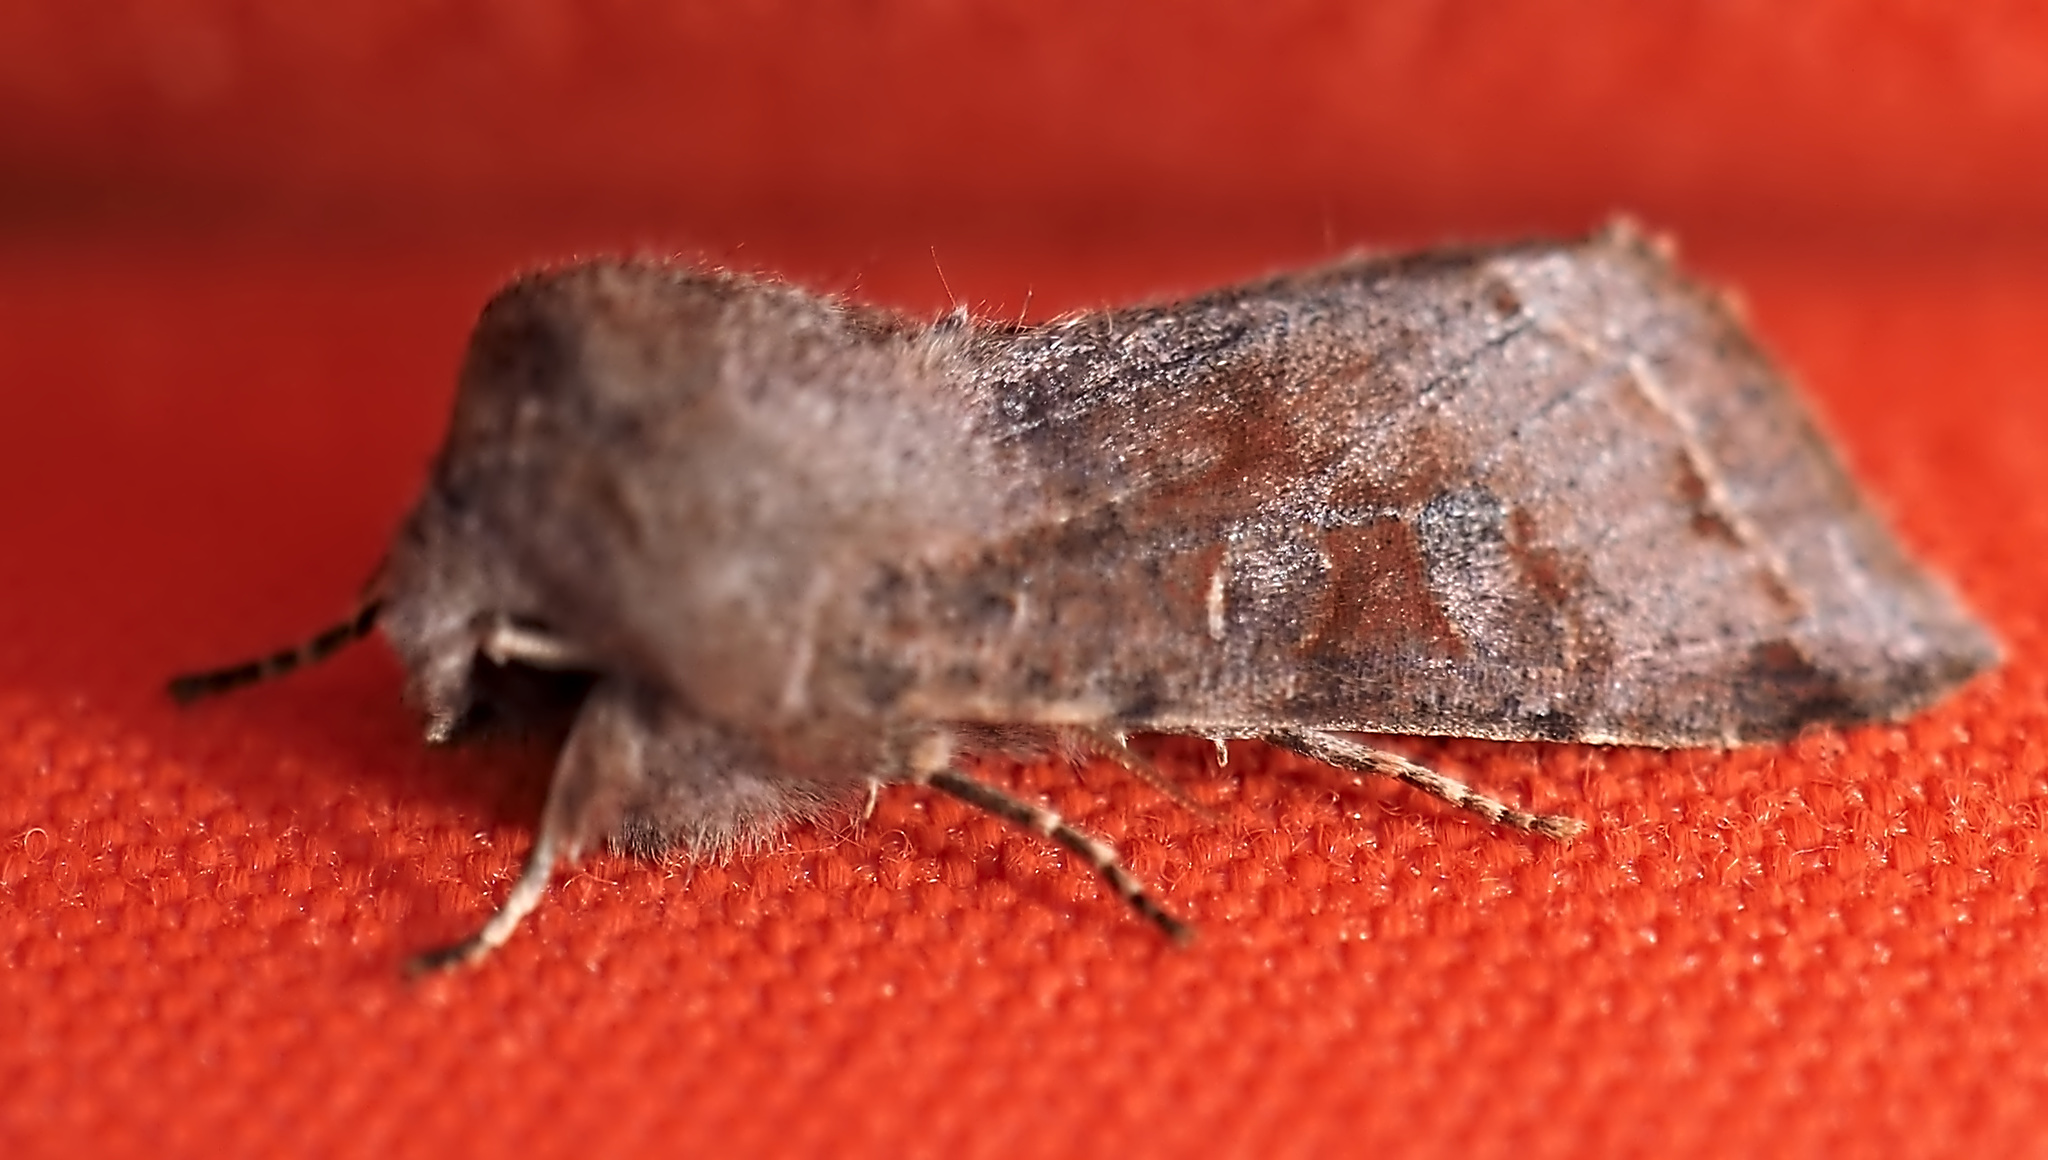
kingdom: Animalia
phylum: Arthropoda
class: Insecta
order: Lepidoptera
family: Noctuidae
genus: Orthosia
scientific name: Orthosia incerta
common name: Clouded drab
